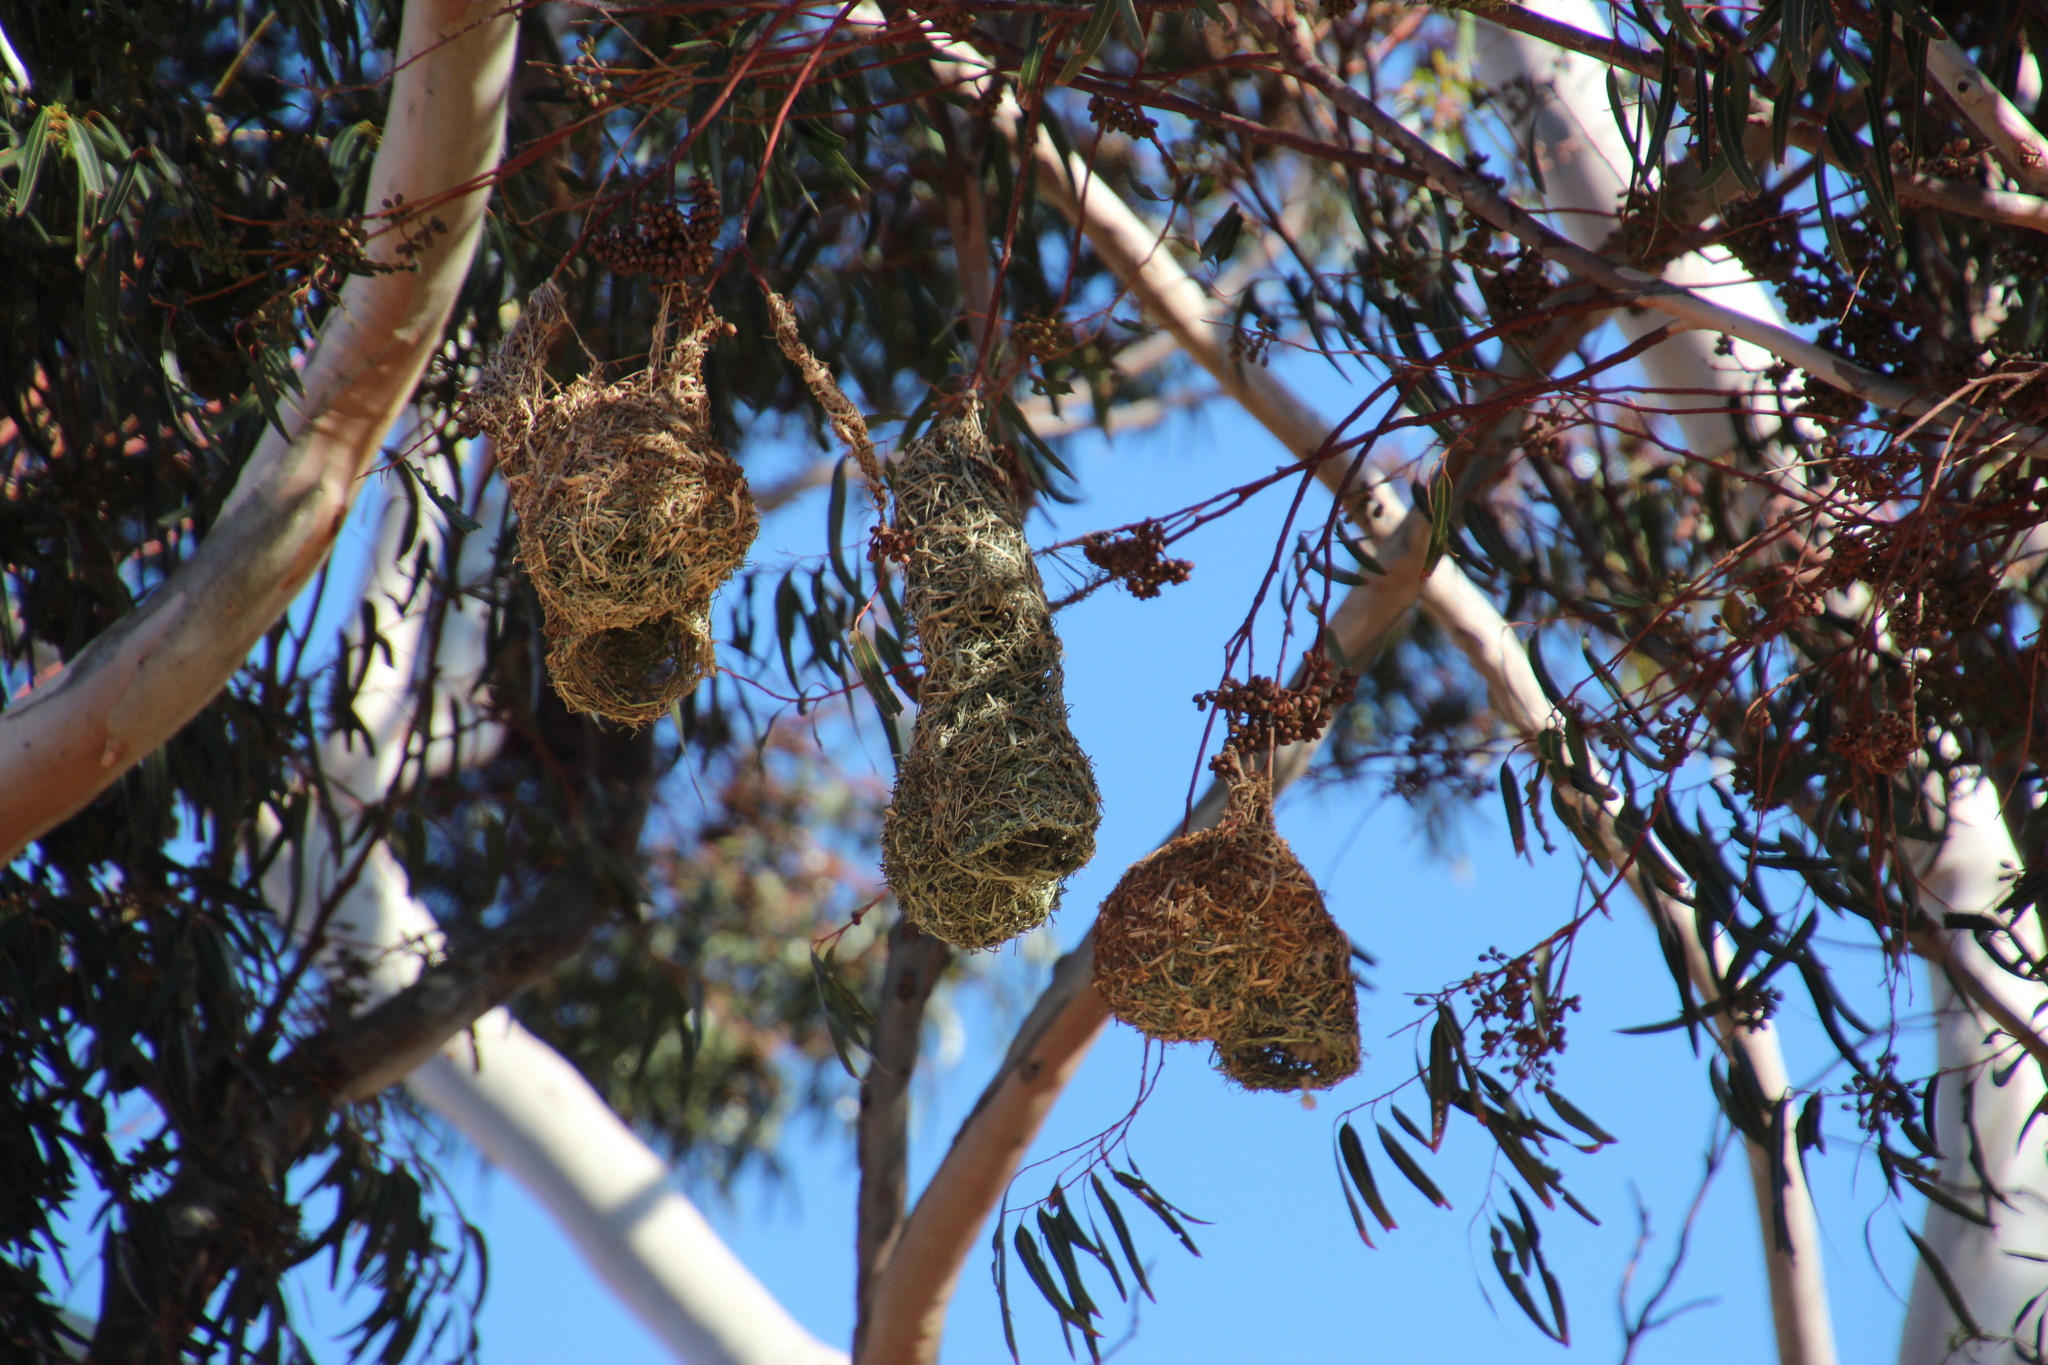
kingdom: Animalia
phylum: Chordata
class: Aves
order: Passeriformes
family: Ploceidae
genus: Ploceus
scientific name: Ploceus capensis
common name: Cape weaver
